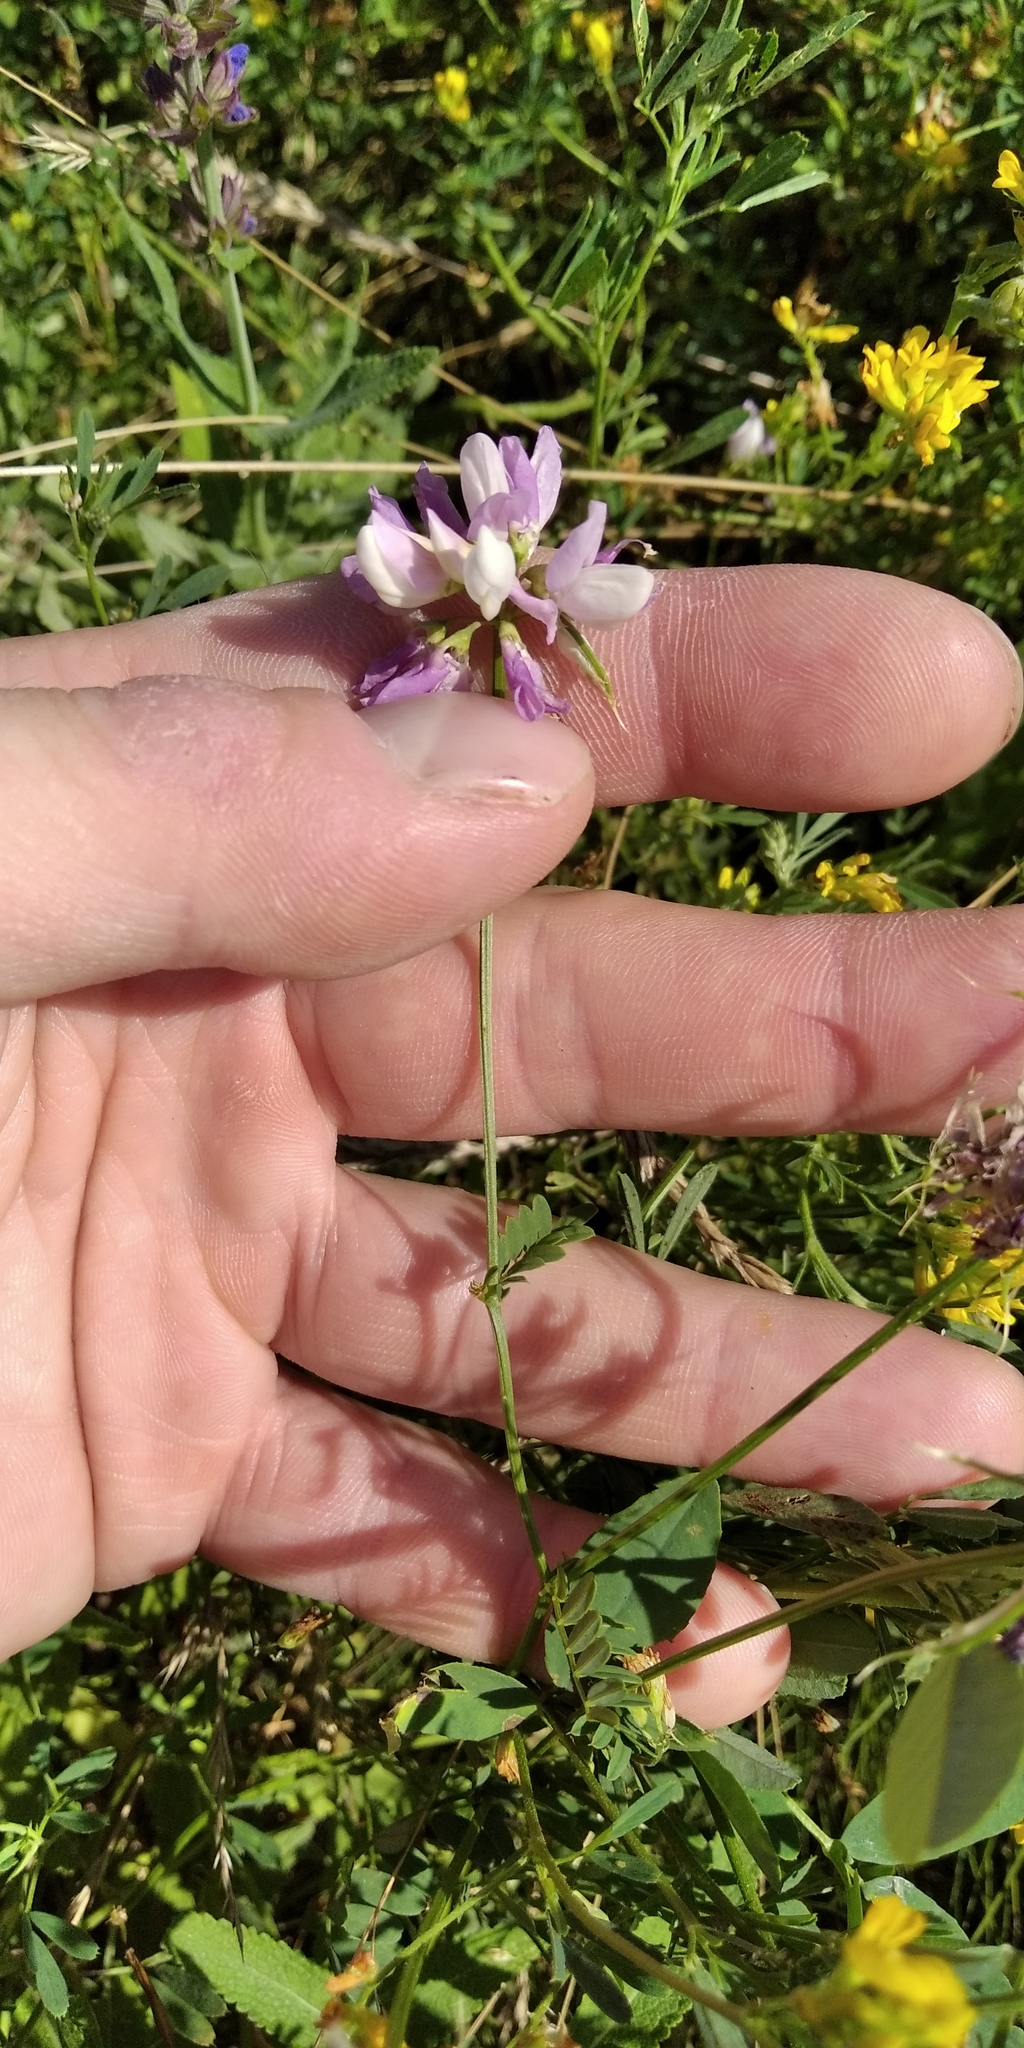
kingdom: Plantae
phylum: Tracheophyta
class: Magnoliopsida
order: Fabales
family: Fabaceae
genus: Coronilla
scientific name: Coronilla varia
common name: Crownvetch
